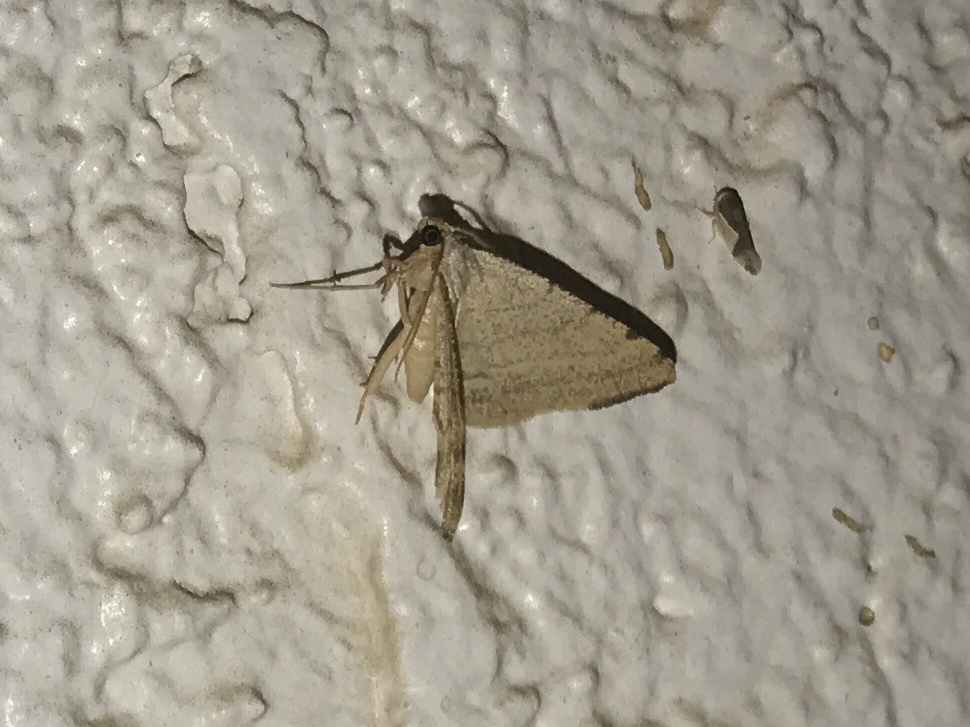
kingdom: Animalia
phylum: Arthropoda
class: Insecta
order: Lepidoptera
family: Geometridae
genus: Macaria
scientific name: Macaria octolineata
